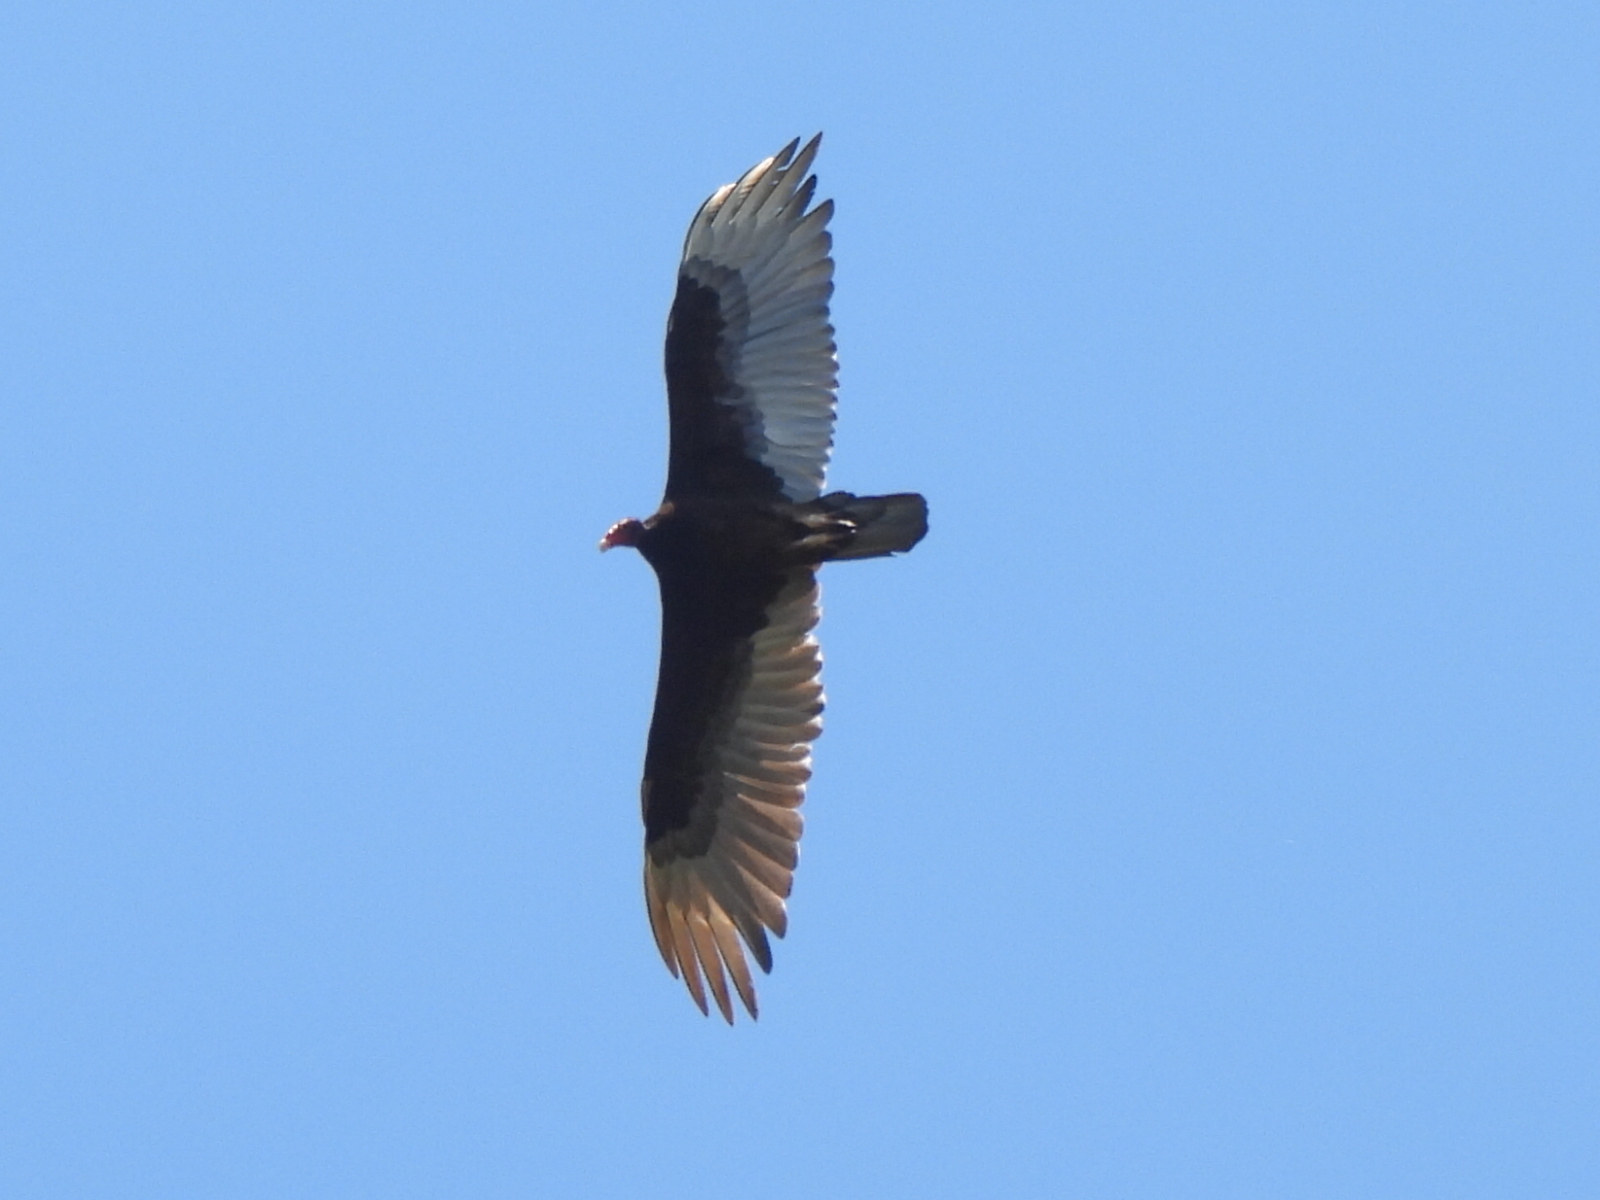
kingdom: Animalia
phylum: Chordata
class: Aves
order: Accipitriformes
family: Cathartidae
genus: Cathartes
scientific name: Cathartes aura
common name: Turkey vulture
